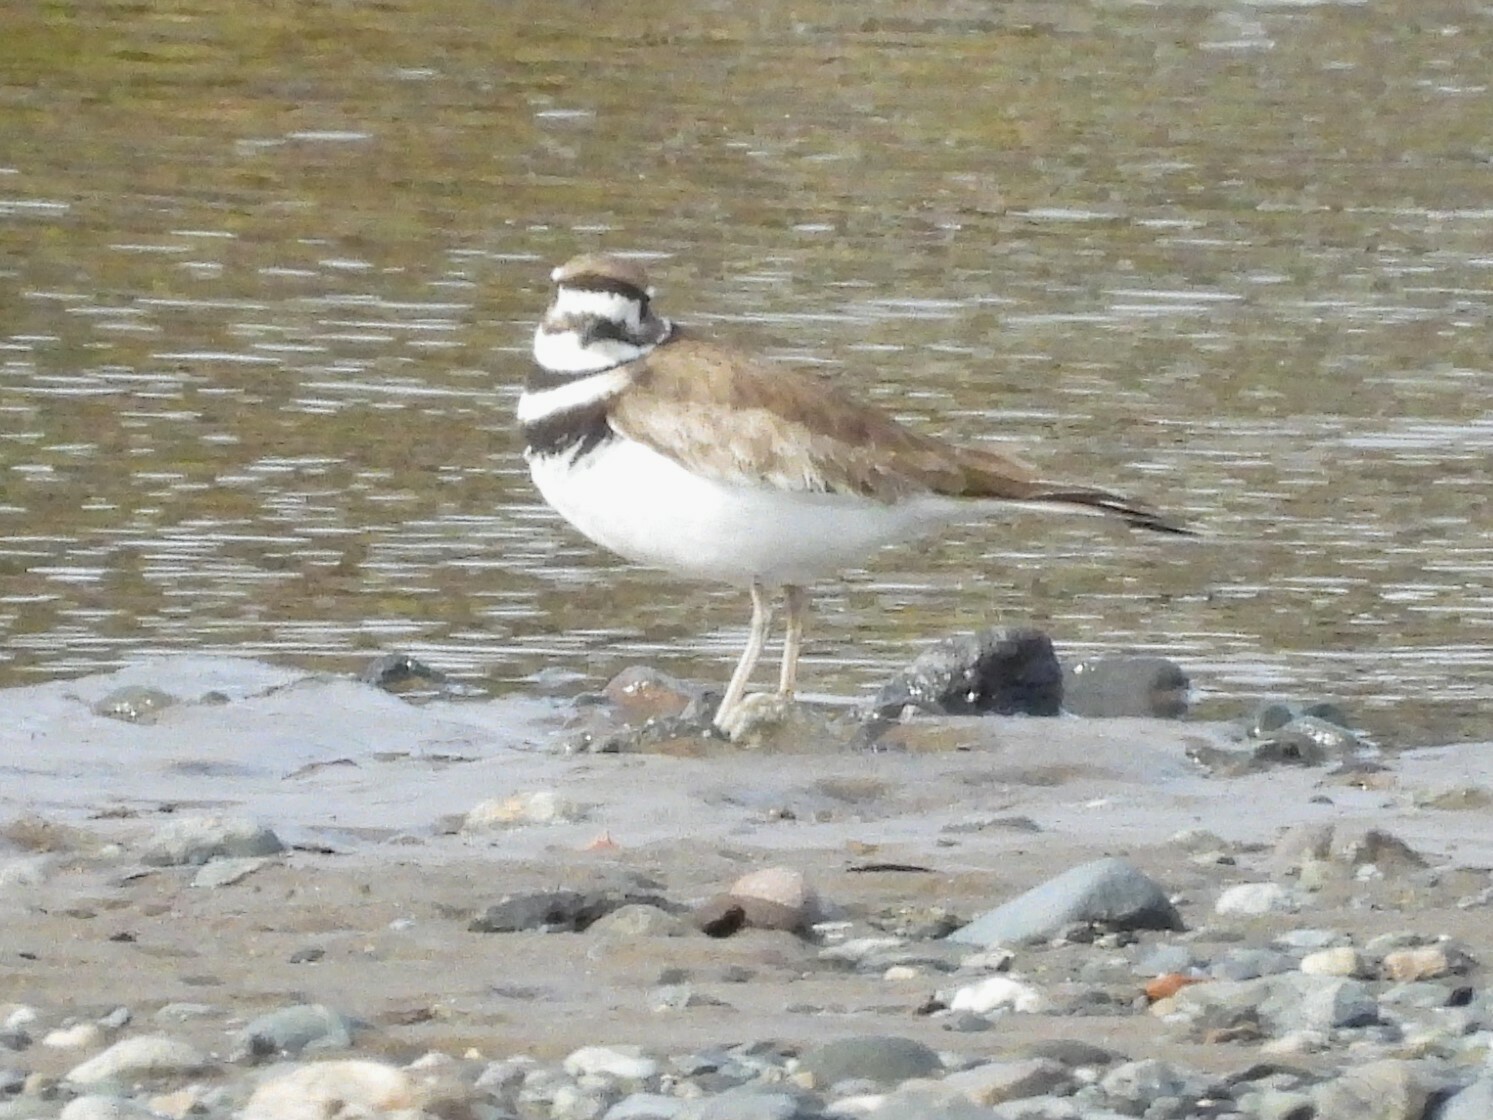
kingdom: Animalia
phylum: Chordata
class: Aves
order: Charadriiformes
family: Charadriidae
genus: Charadrius
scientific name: Charadrius vociferus
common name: Killdeer
